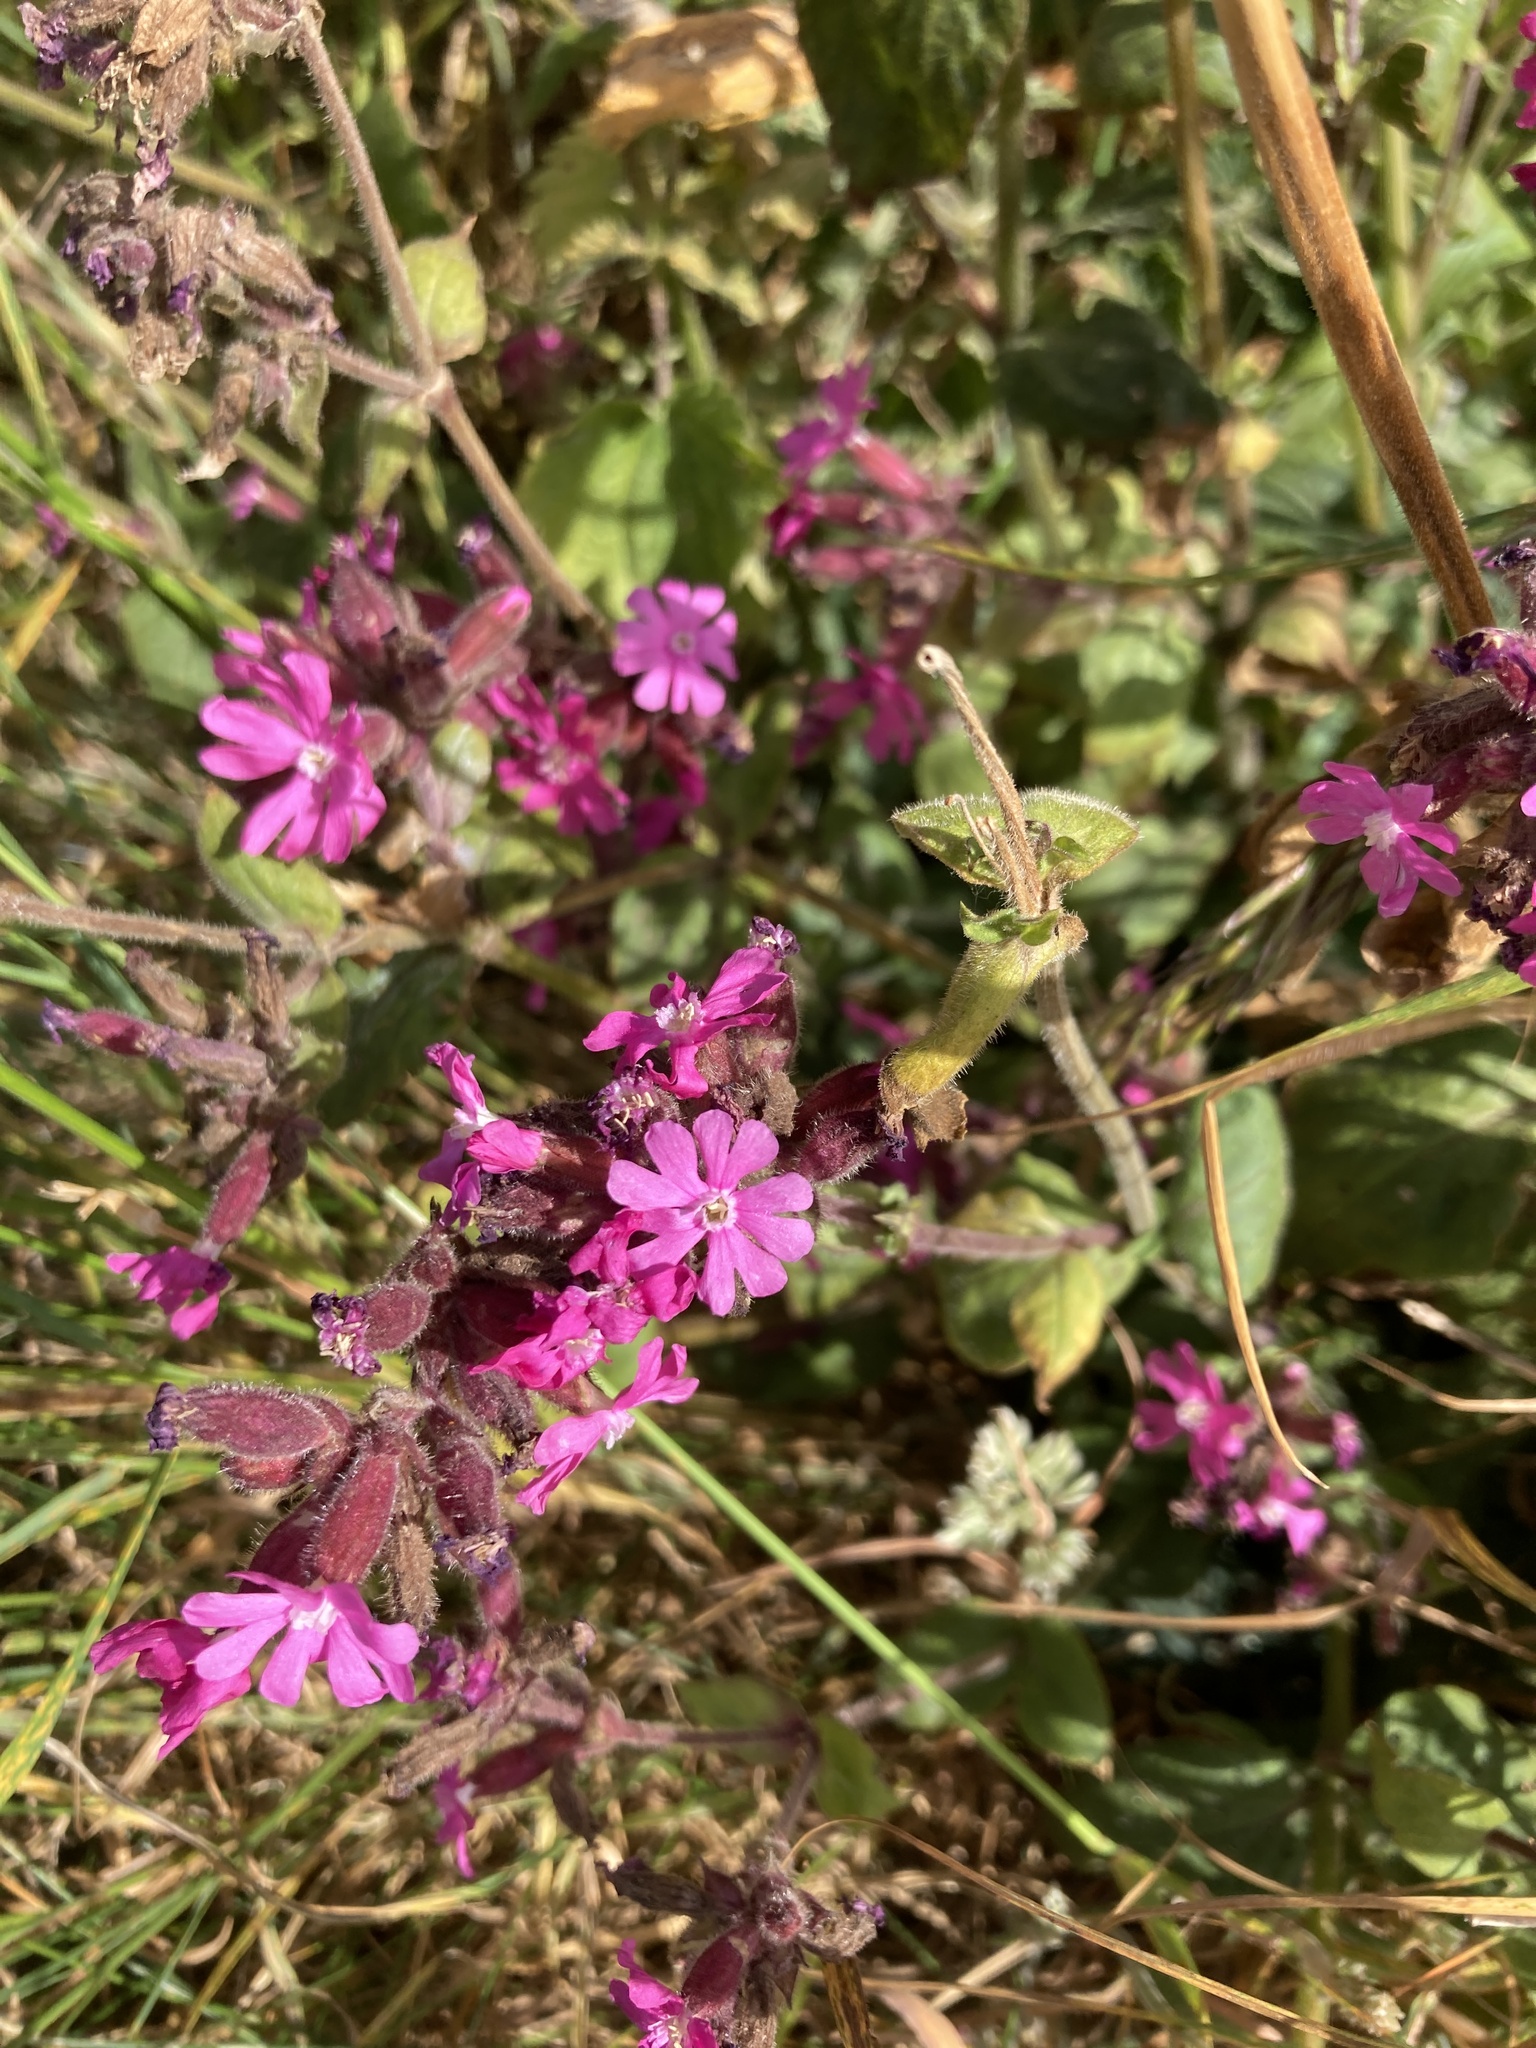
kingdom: Plantae
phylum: Tracheophyta
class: Magnoliopsida
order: Caryophyllales
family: Caryophyllaceae
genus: Silene
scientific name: Silene dioica
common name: Red campion
